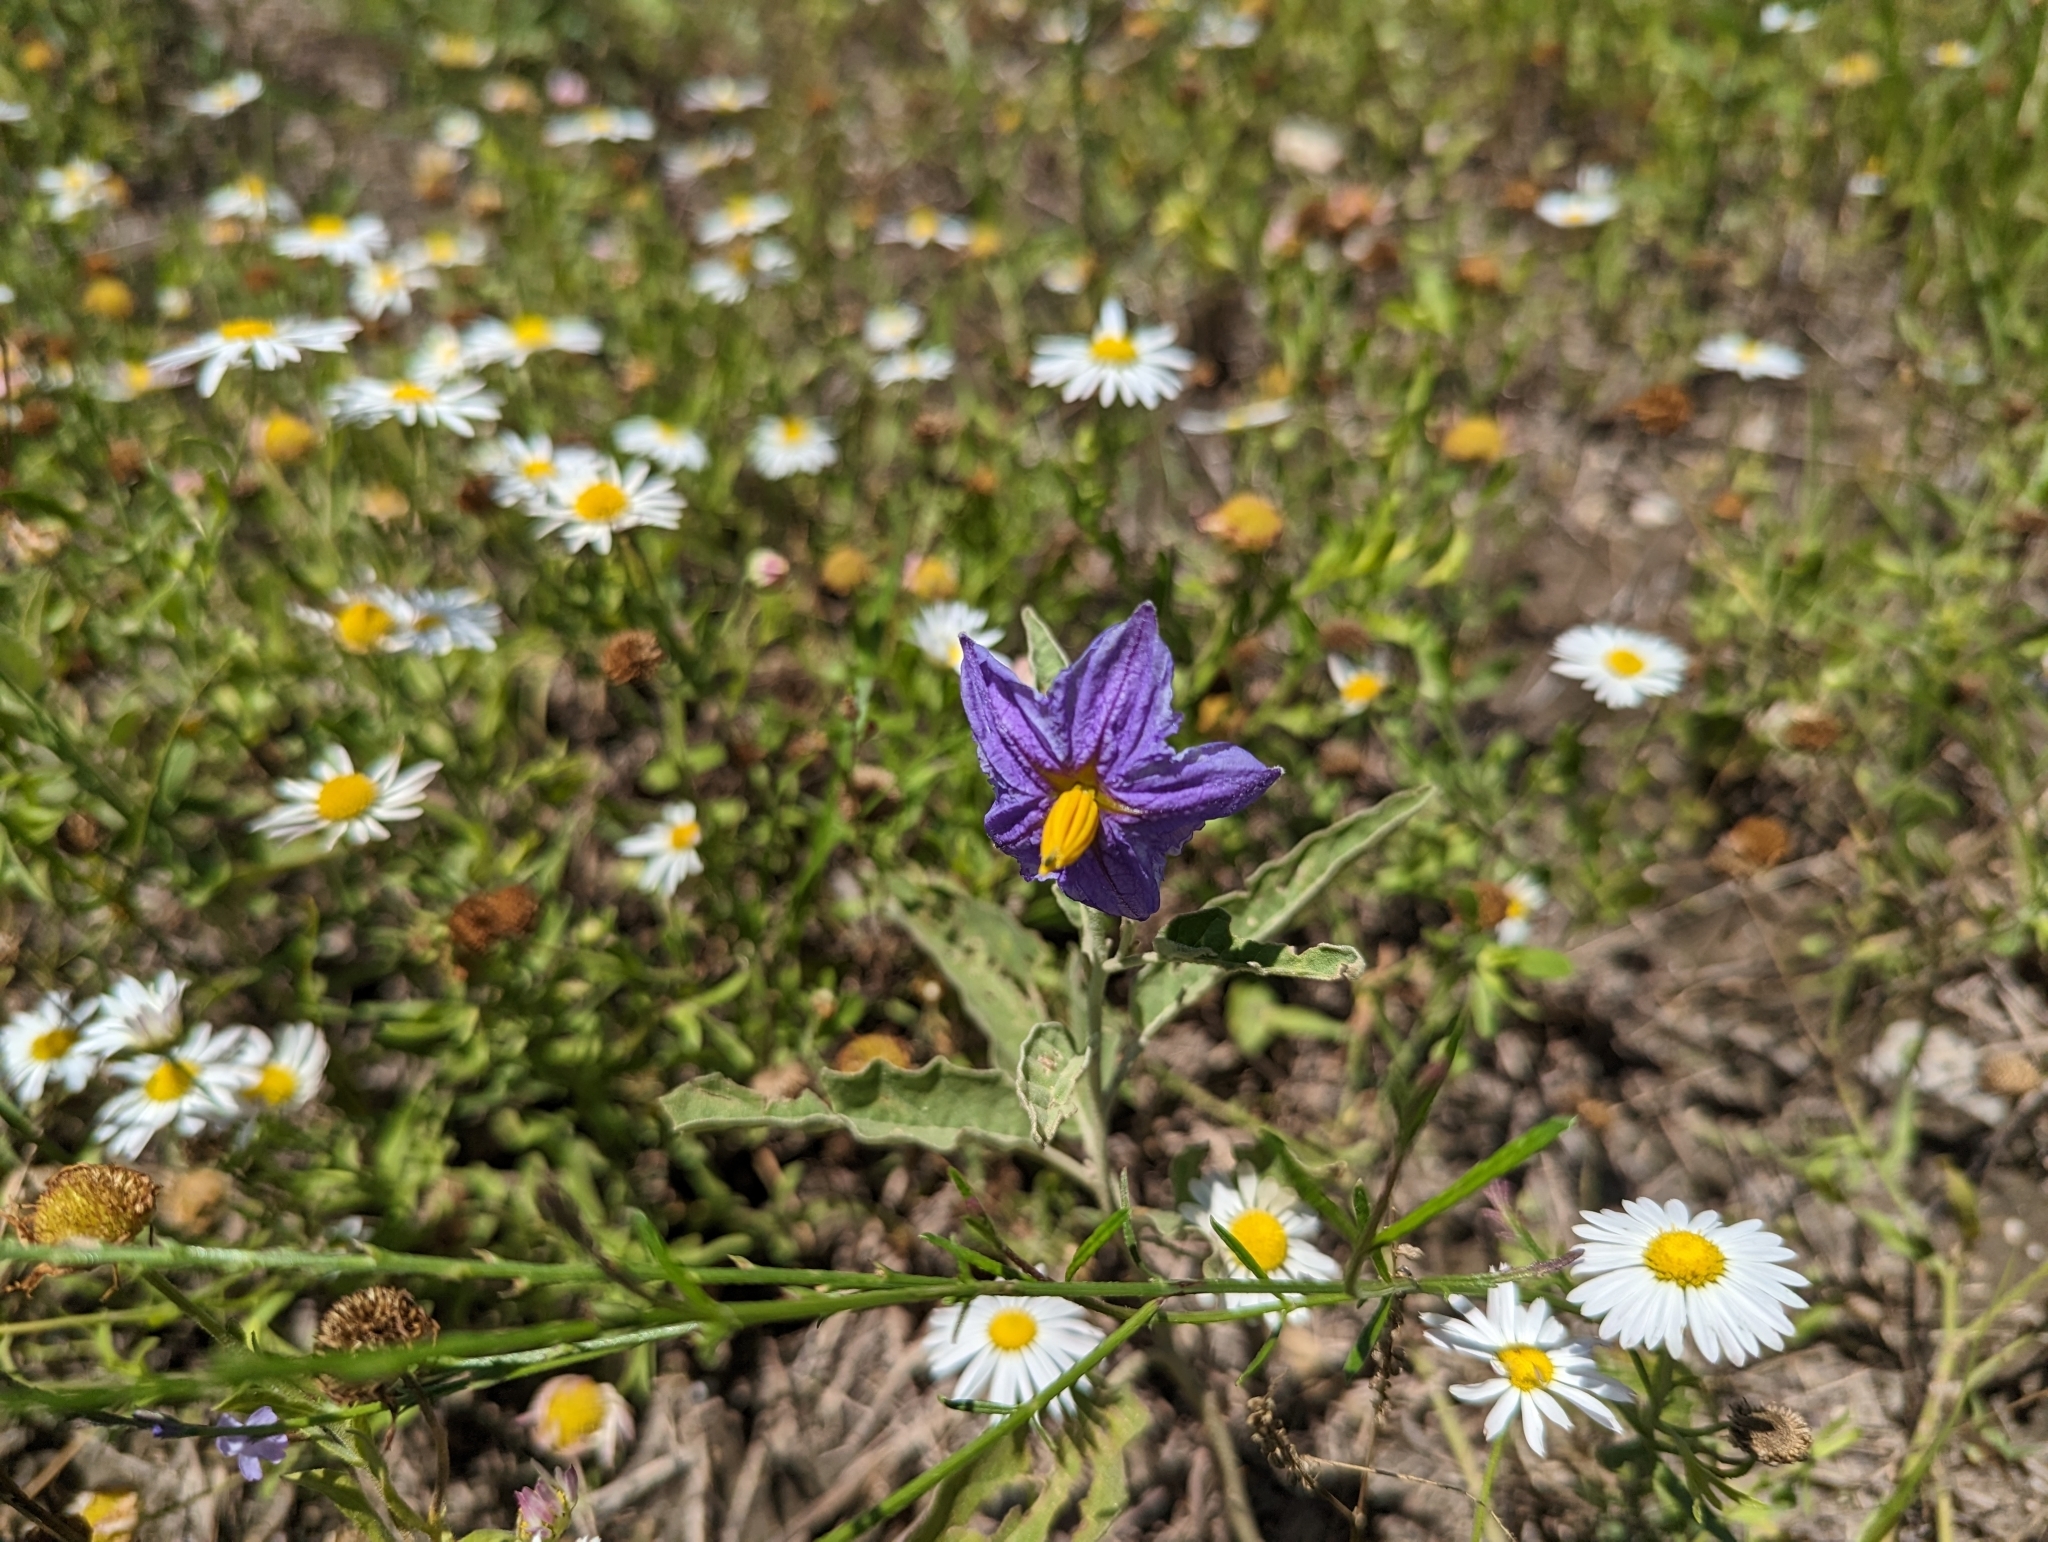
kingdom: Plantae
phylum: Tracheophyta
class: Magnoliopsida
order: Solanales
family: Solanaceae
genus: Solanum
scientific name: Solanum elaeagnifolium
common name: Silverleaf nightshade
